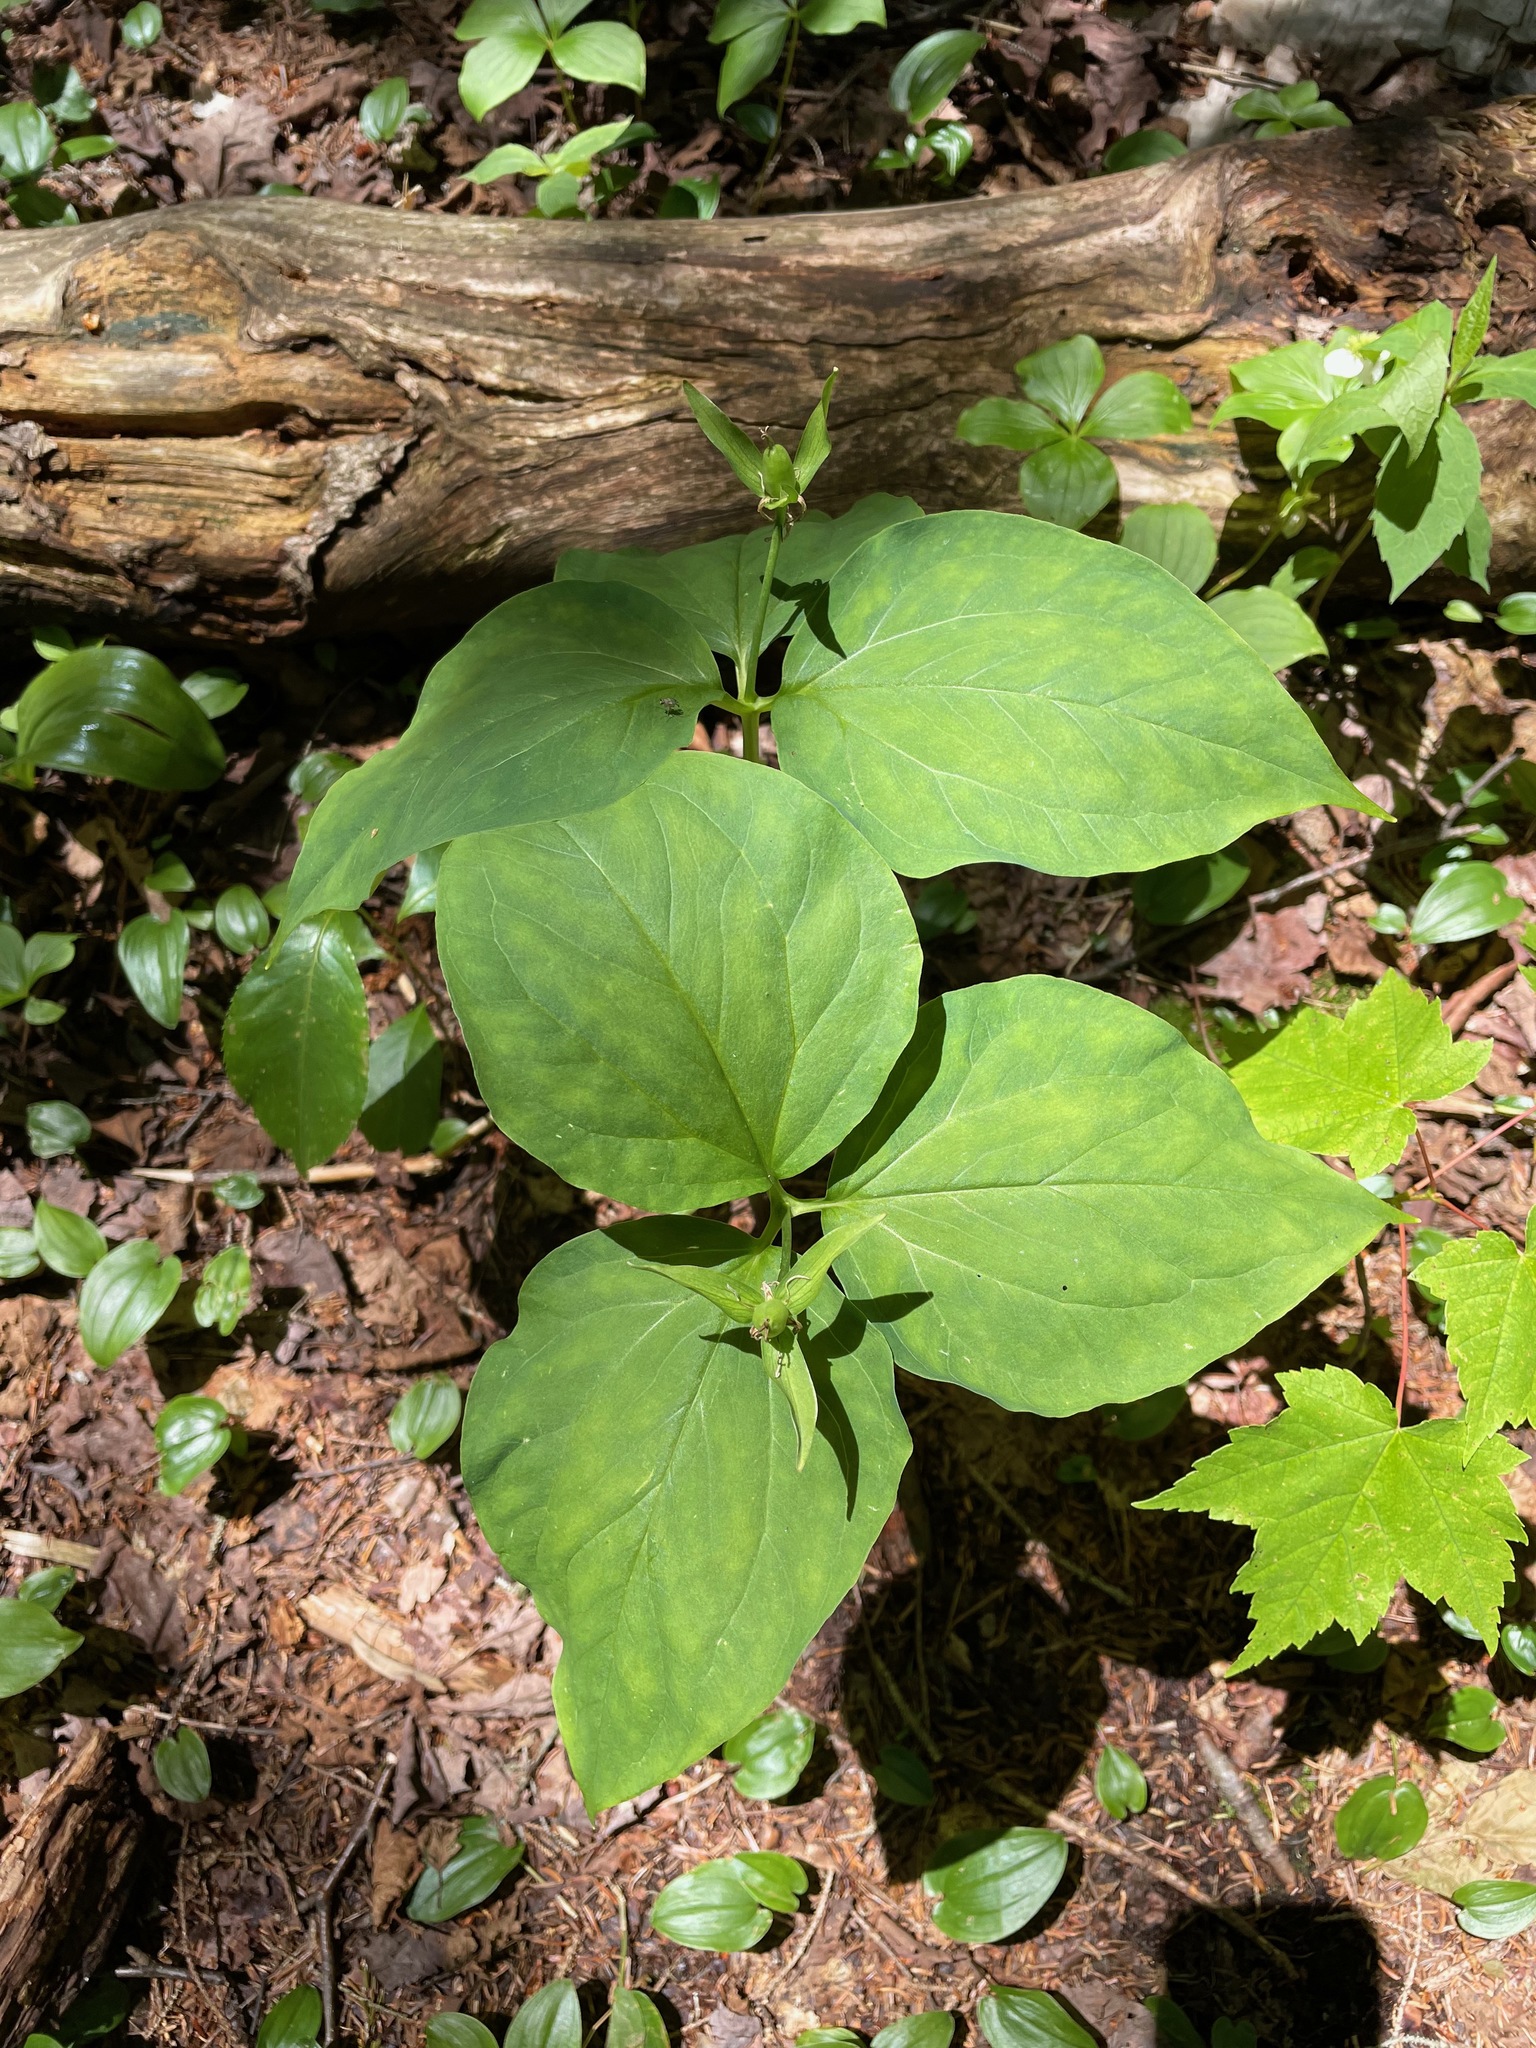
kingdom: Plantae
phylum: Tracheophyta
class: Liliopsida
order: Liliales
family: Melanthiaceae
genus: Trillium
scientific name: Trillium undulatum
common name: Paint trillium
